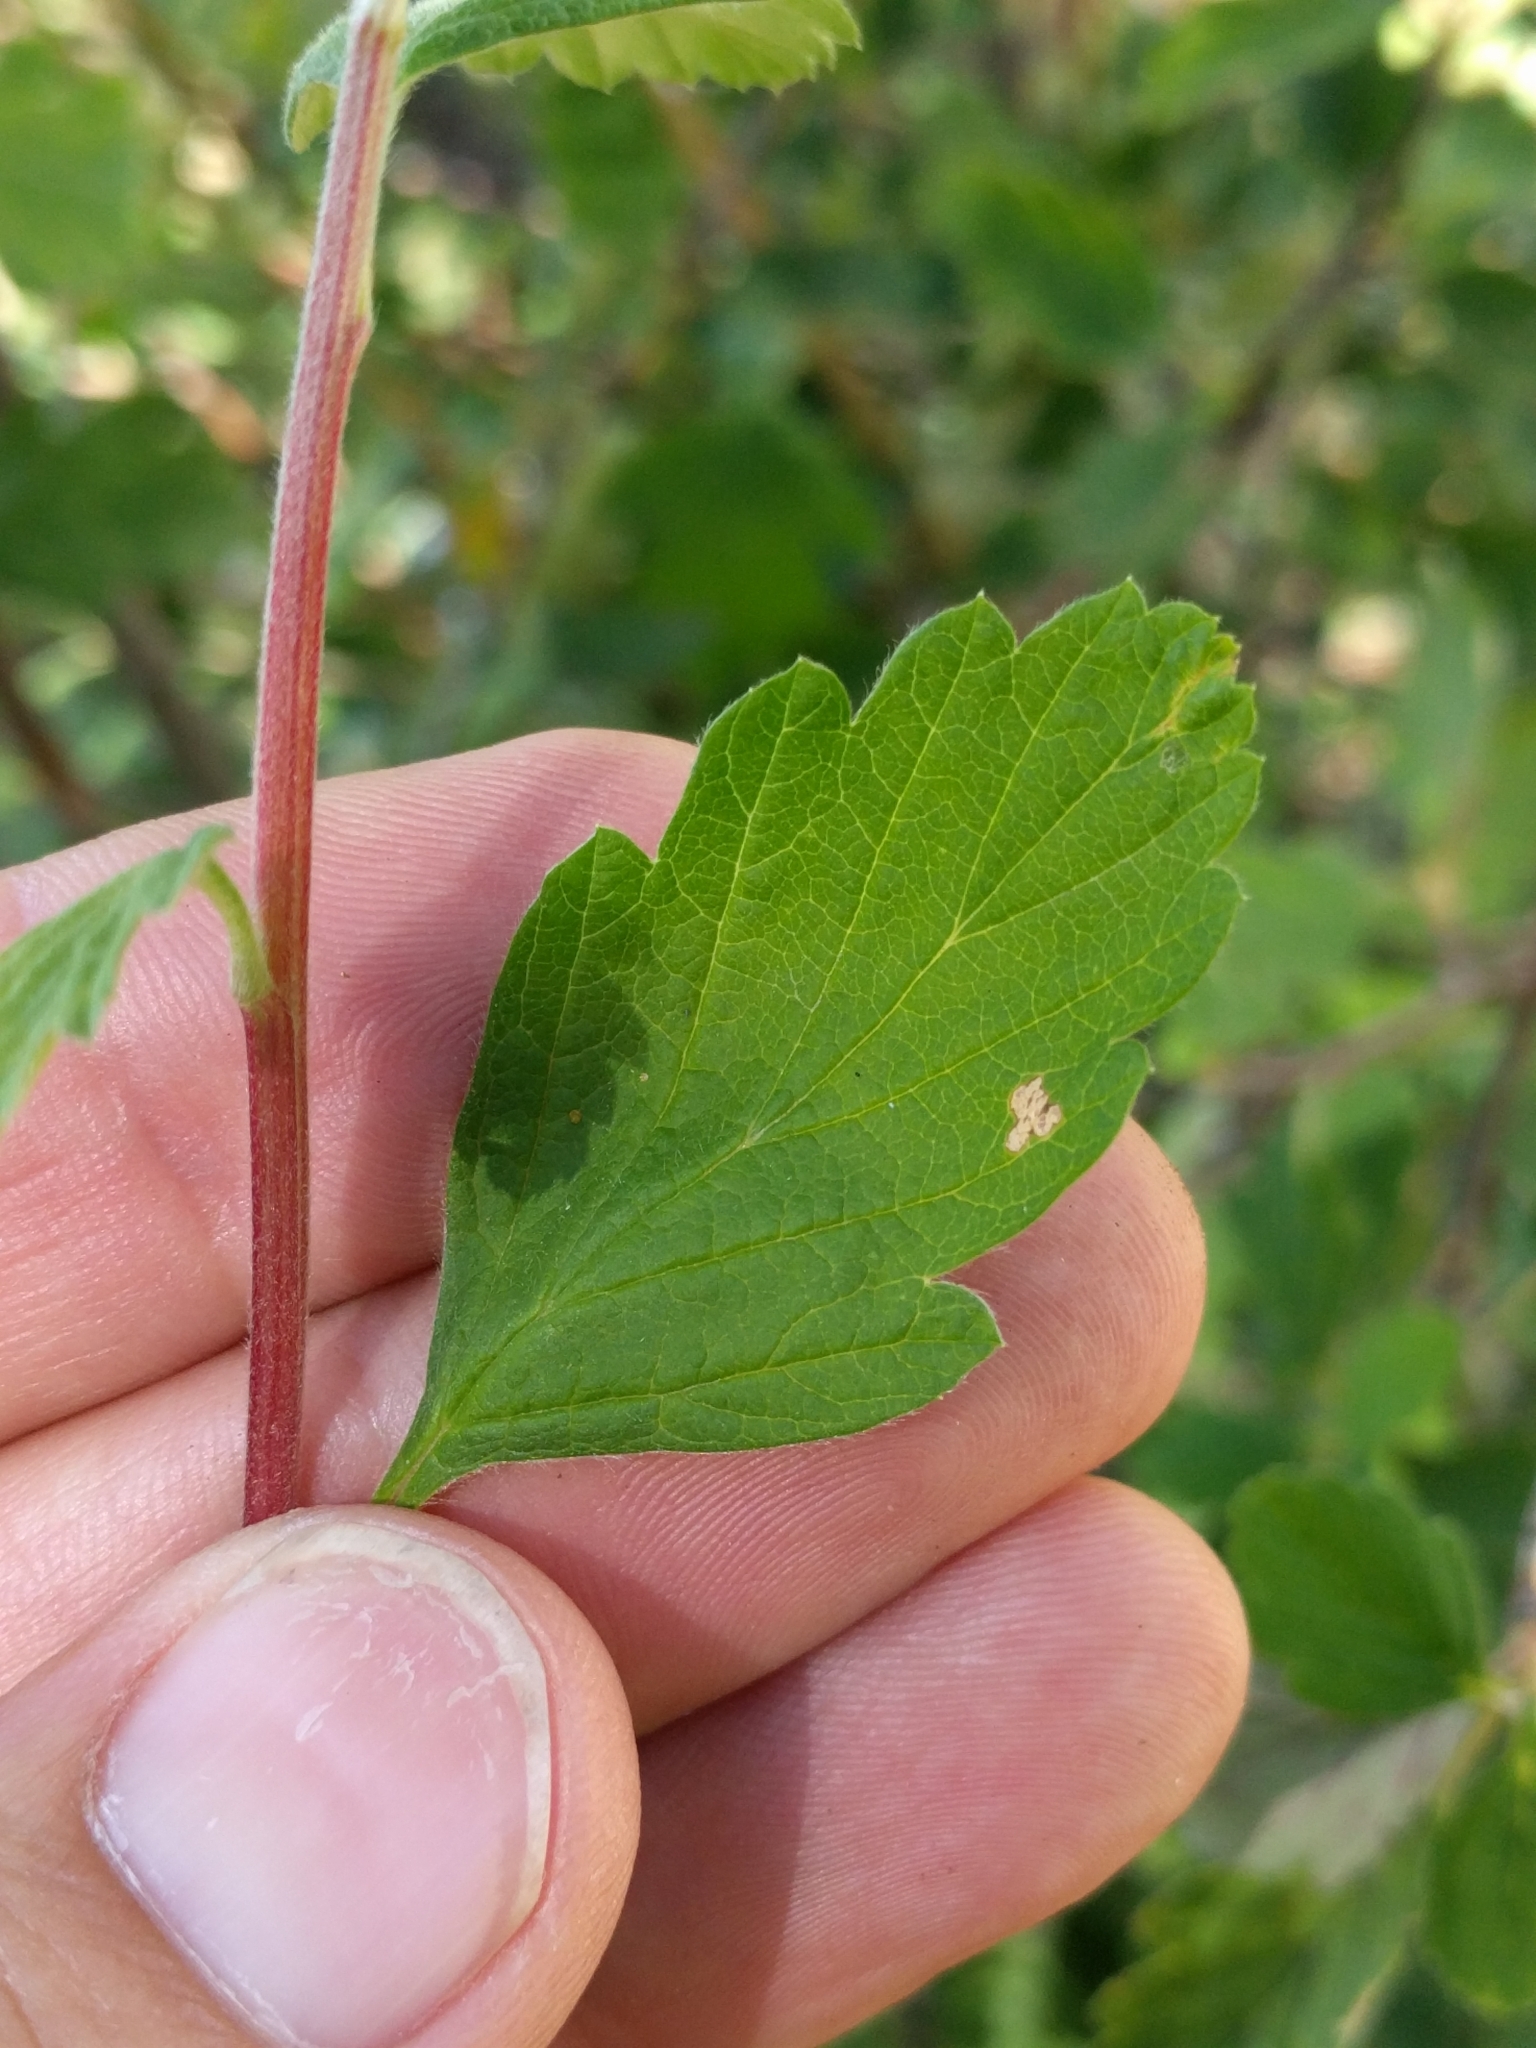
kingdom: Plantae
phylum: Tracheophyta
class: Magnoliopsida
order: Rosales
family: Rosaceae
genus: Holodiscus
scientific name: Holodiscus discolor
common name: Oceanspray
